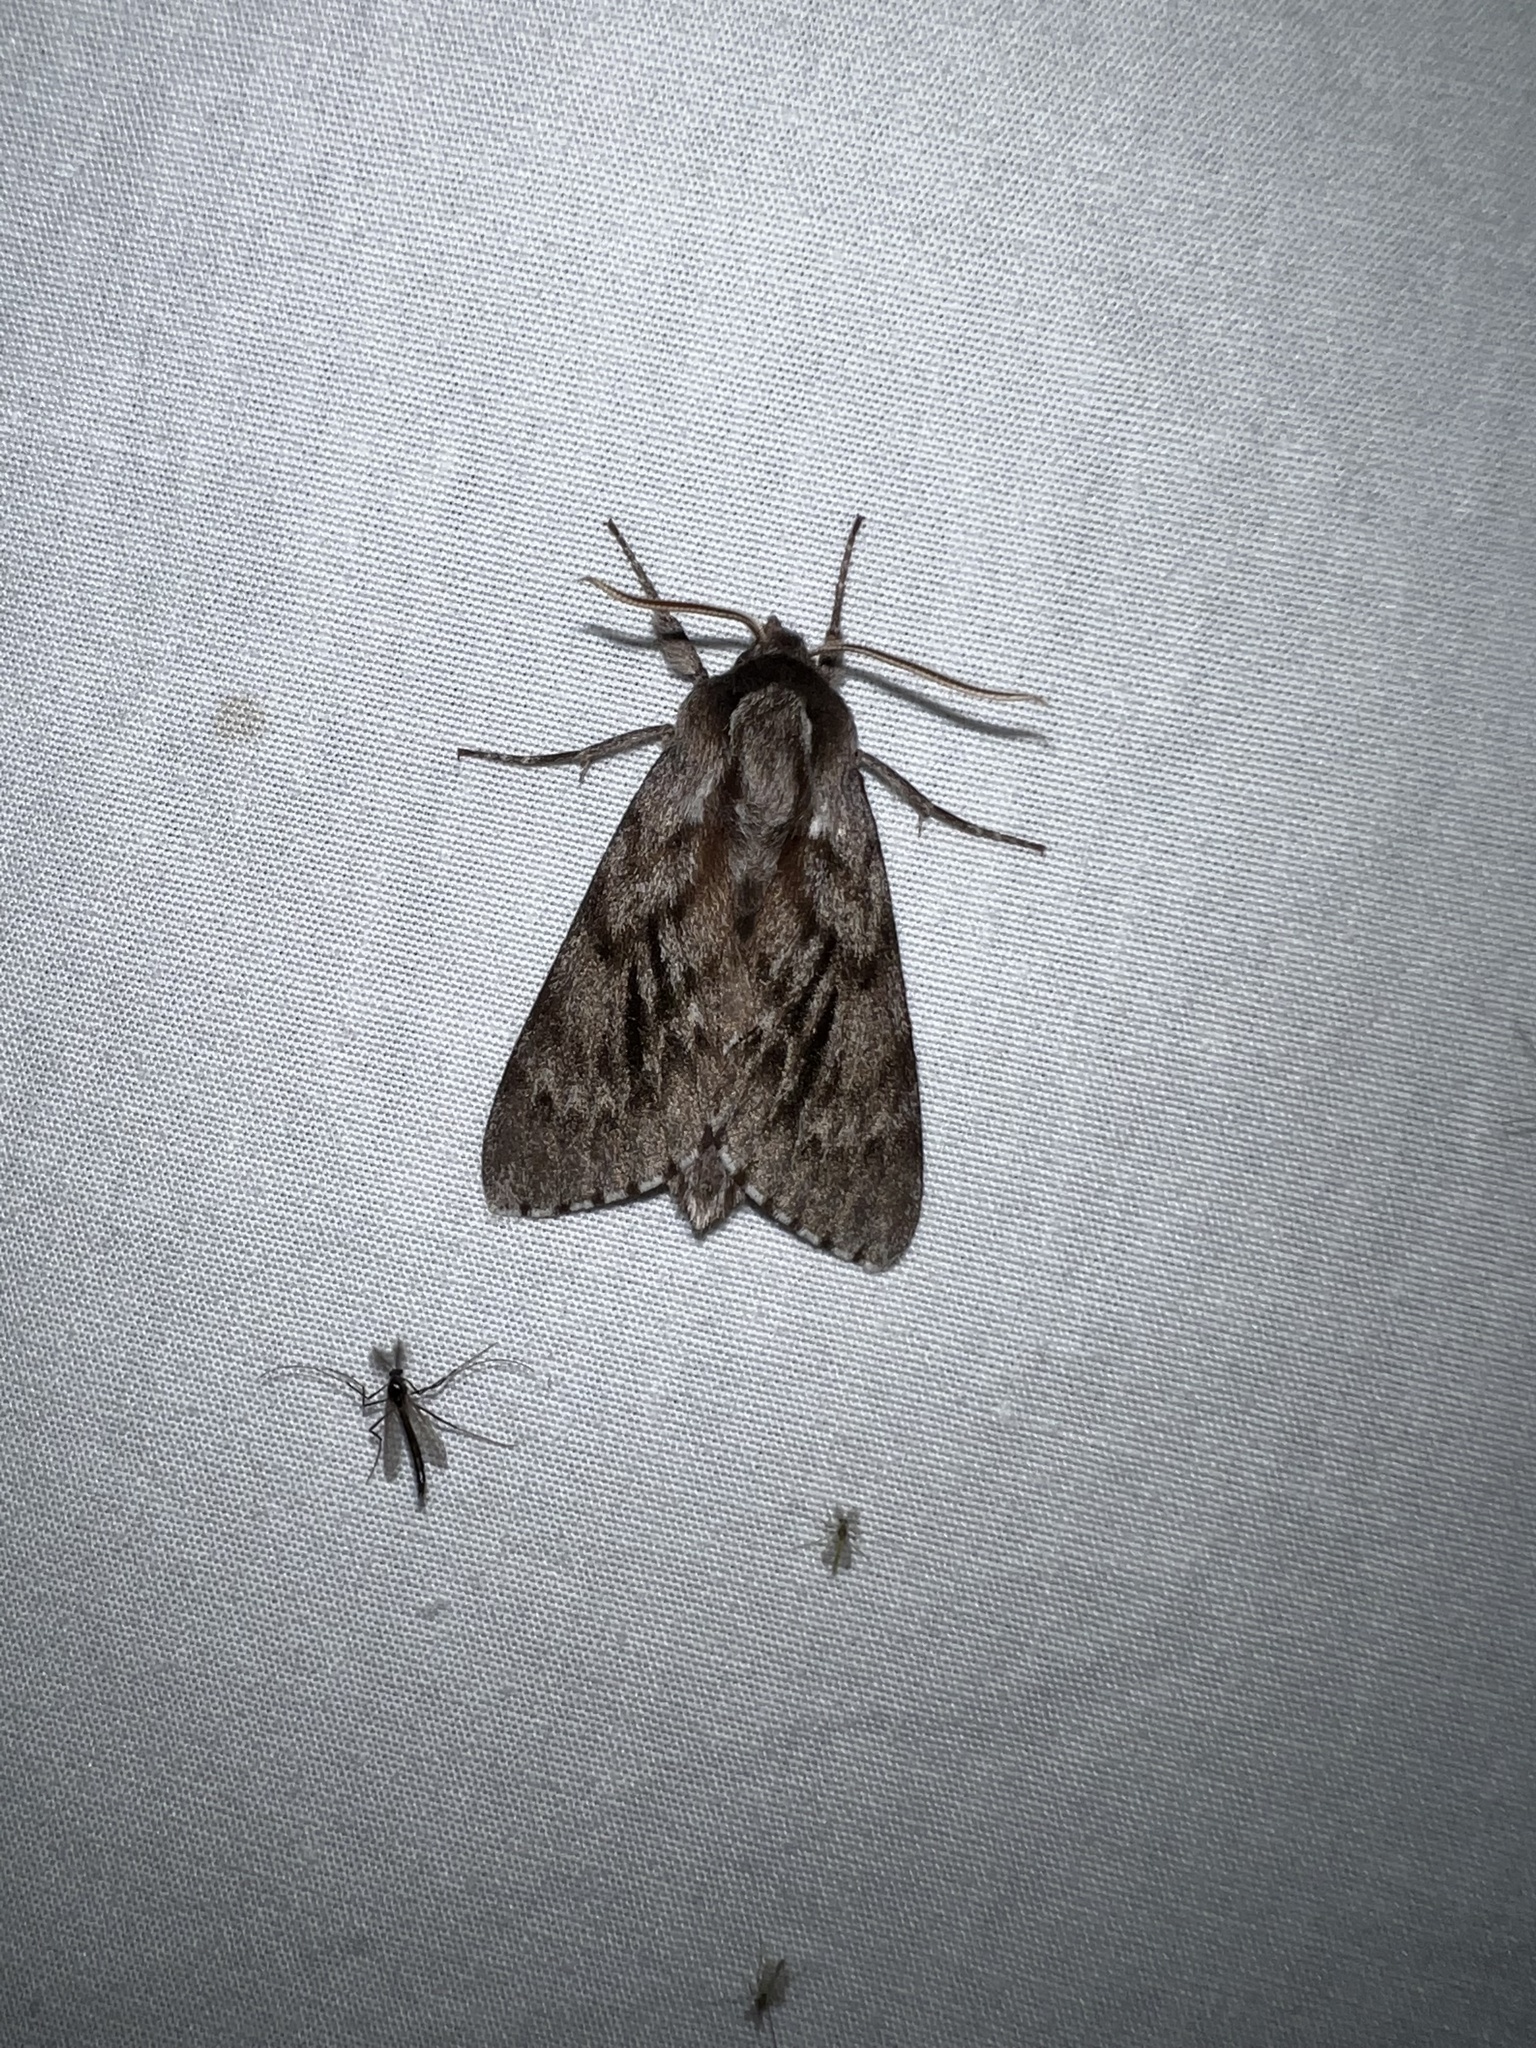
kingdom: Animalia
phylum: Arthropoda
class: Insecta
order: Lepidoptera
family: Sphingidae
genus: Lapara
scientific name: Lapara bombycoides
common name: Northern pine sphinx
